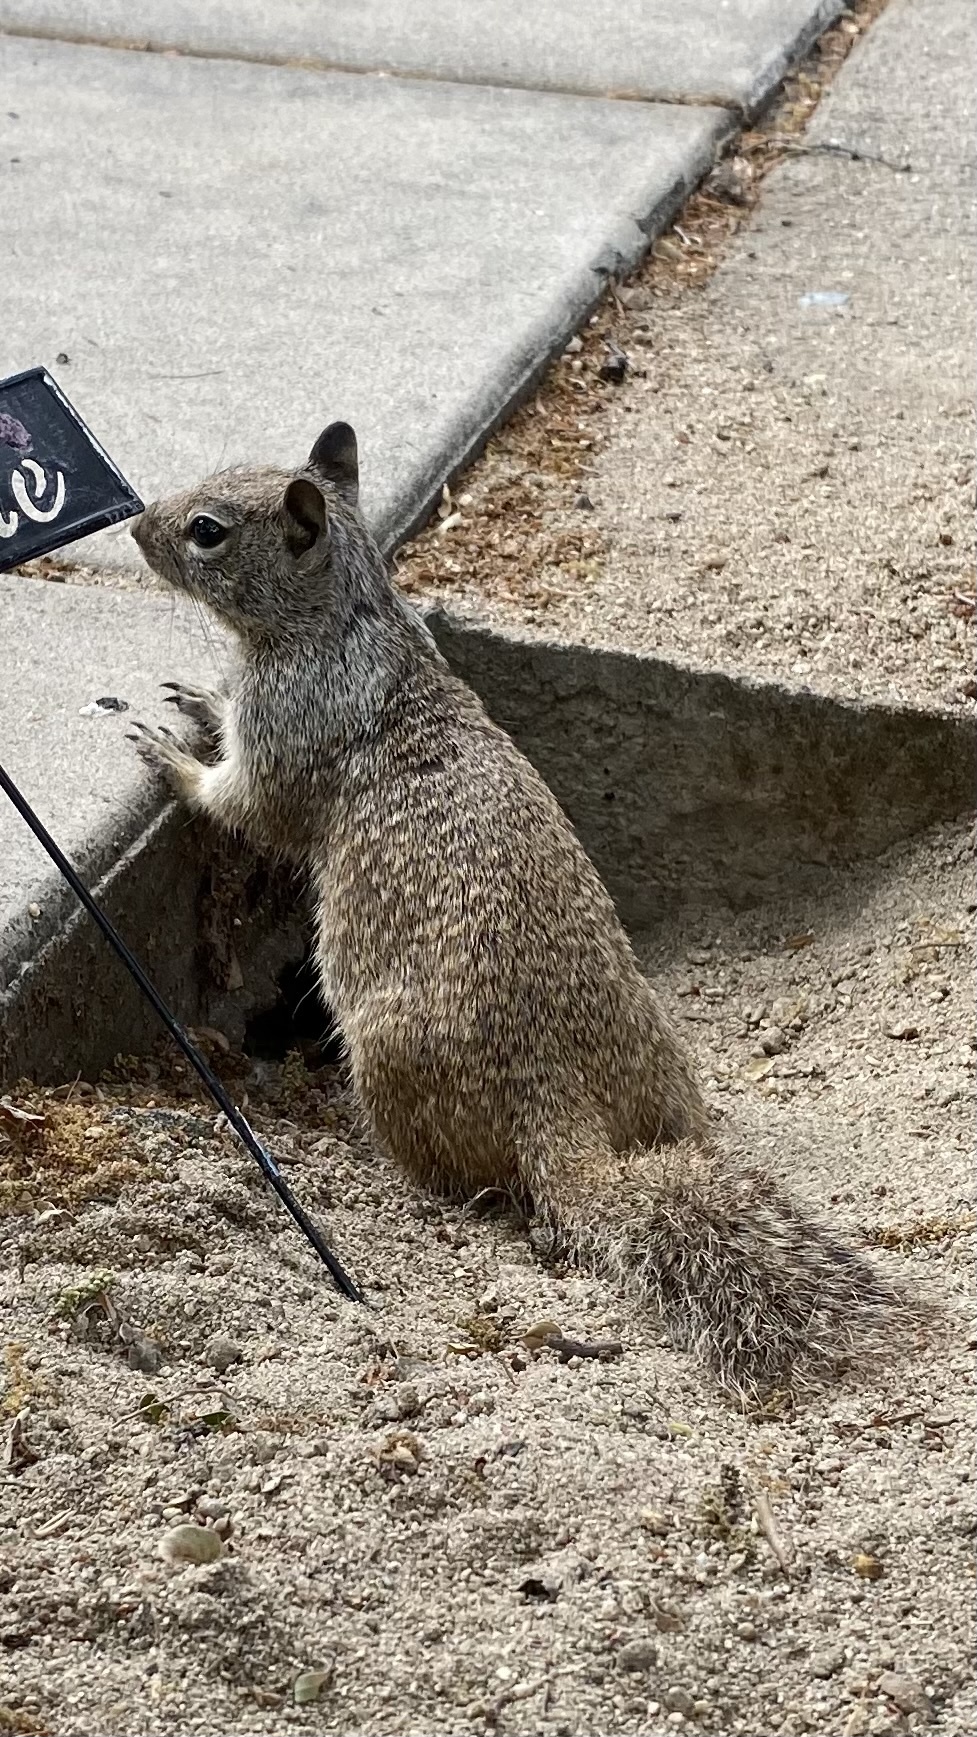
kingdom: Animalia
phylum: Chordata
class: Mammalia
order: Rodentia
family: Sciuridae
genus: Otospermophilus
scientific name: Otospermophilus beecheyi
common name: California ground squirrel
